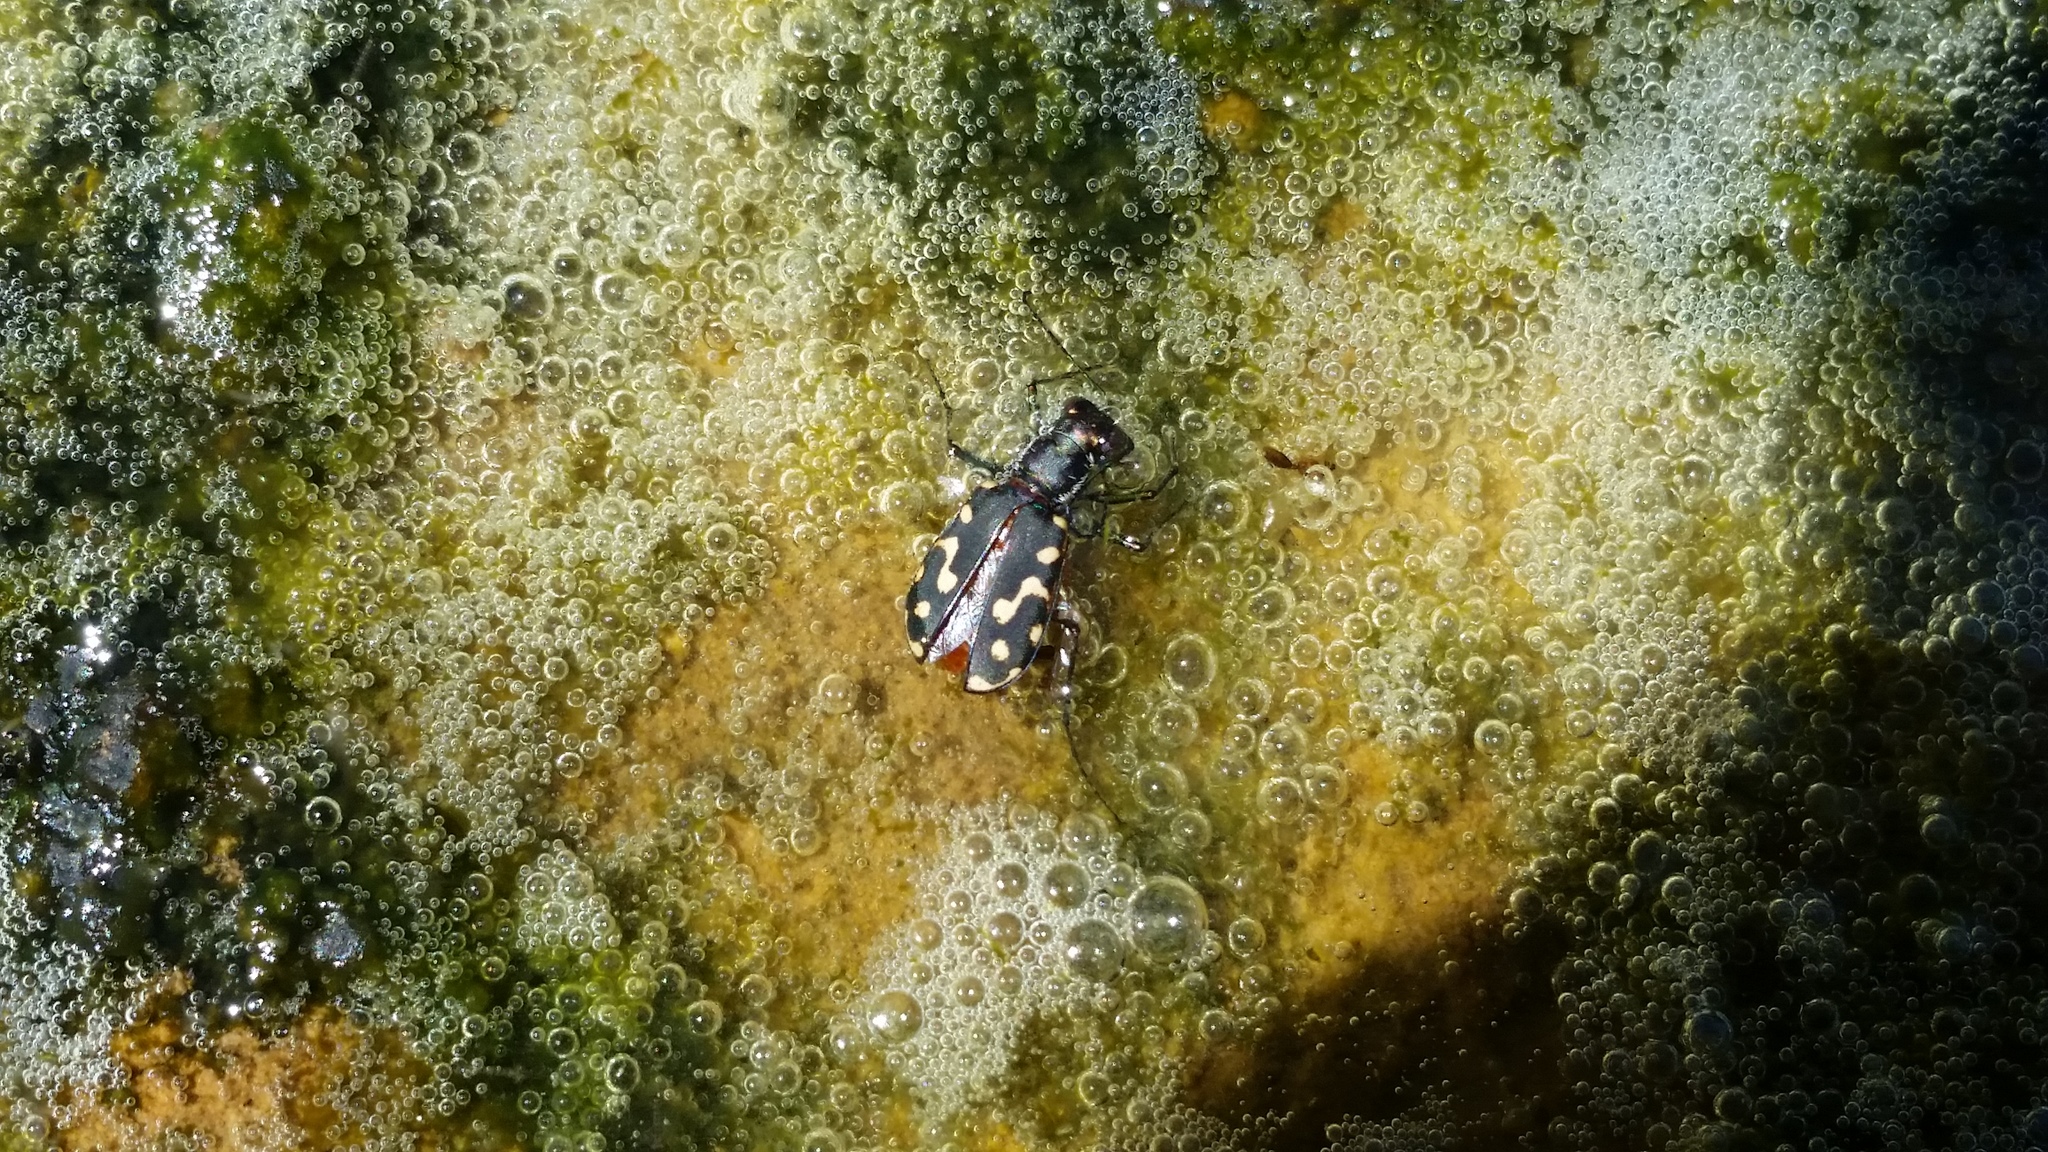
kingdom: Animalia
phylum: Arthropoda
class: Insecta
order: Coleoptera
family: Carabidae
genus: Cicindela
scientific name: Cicindela hemorrhagica
